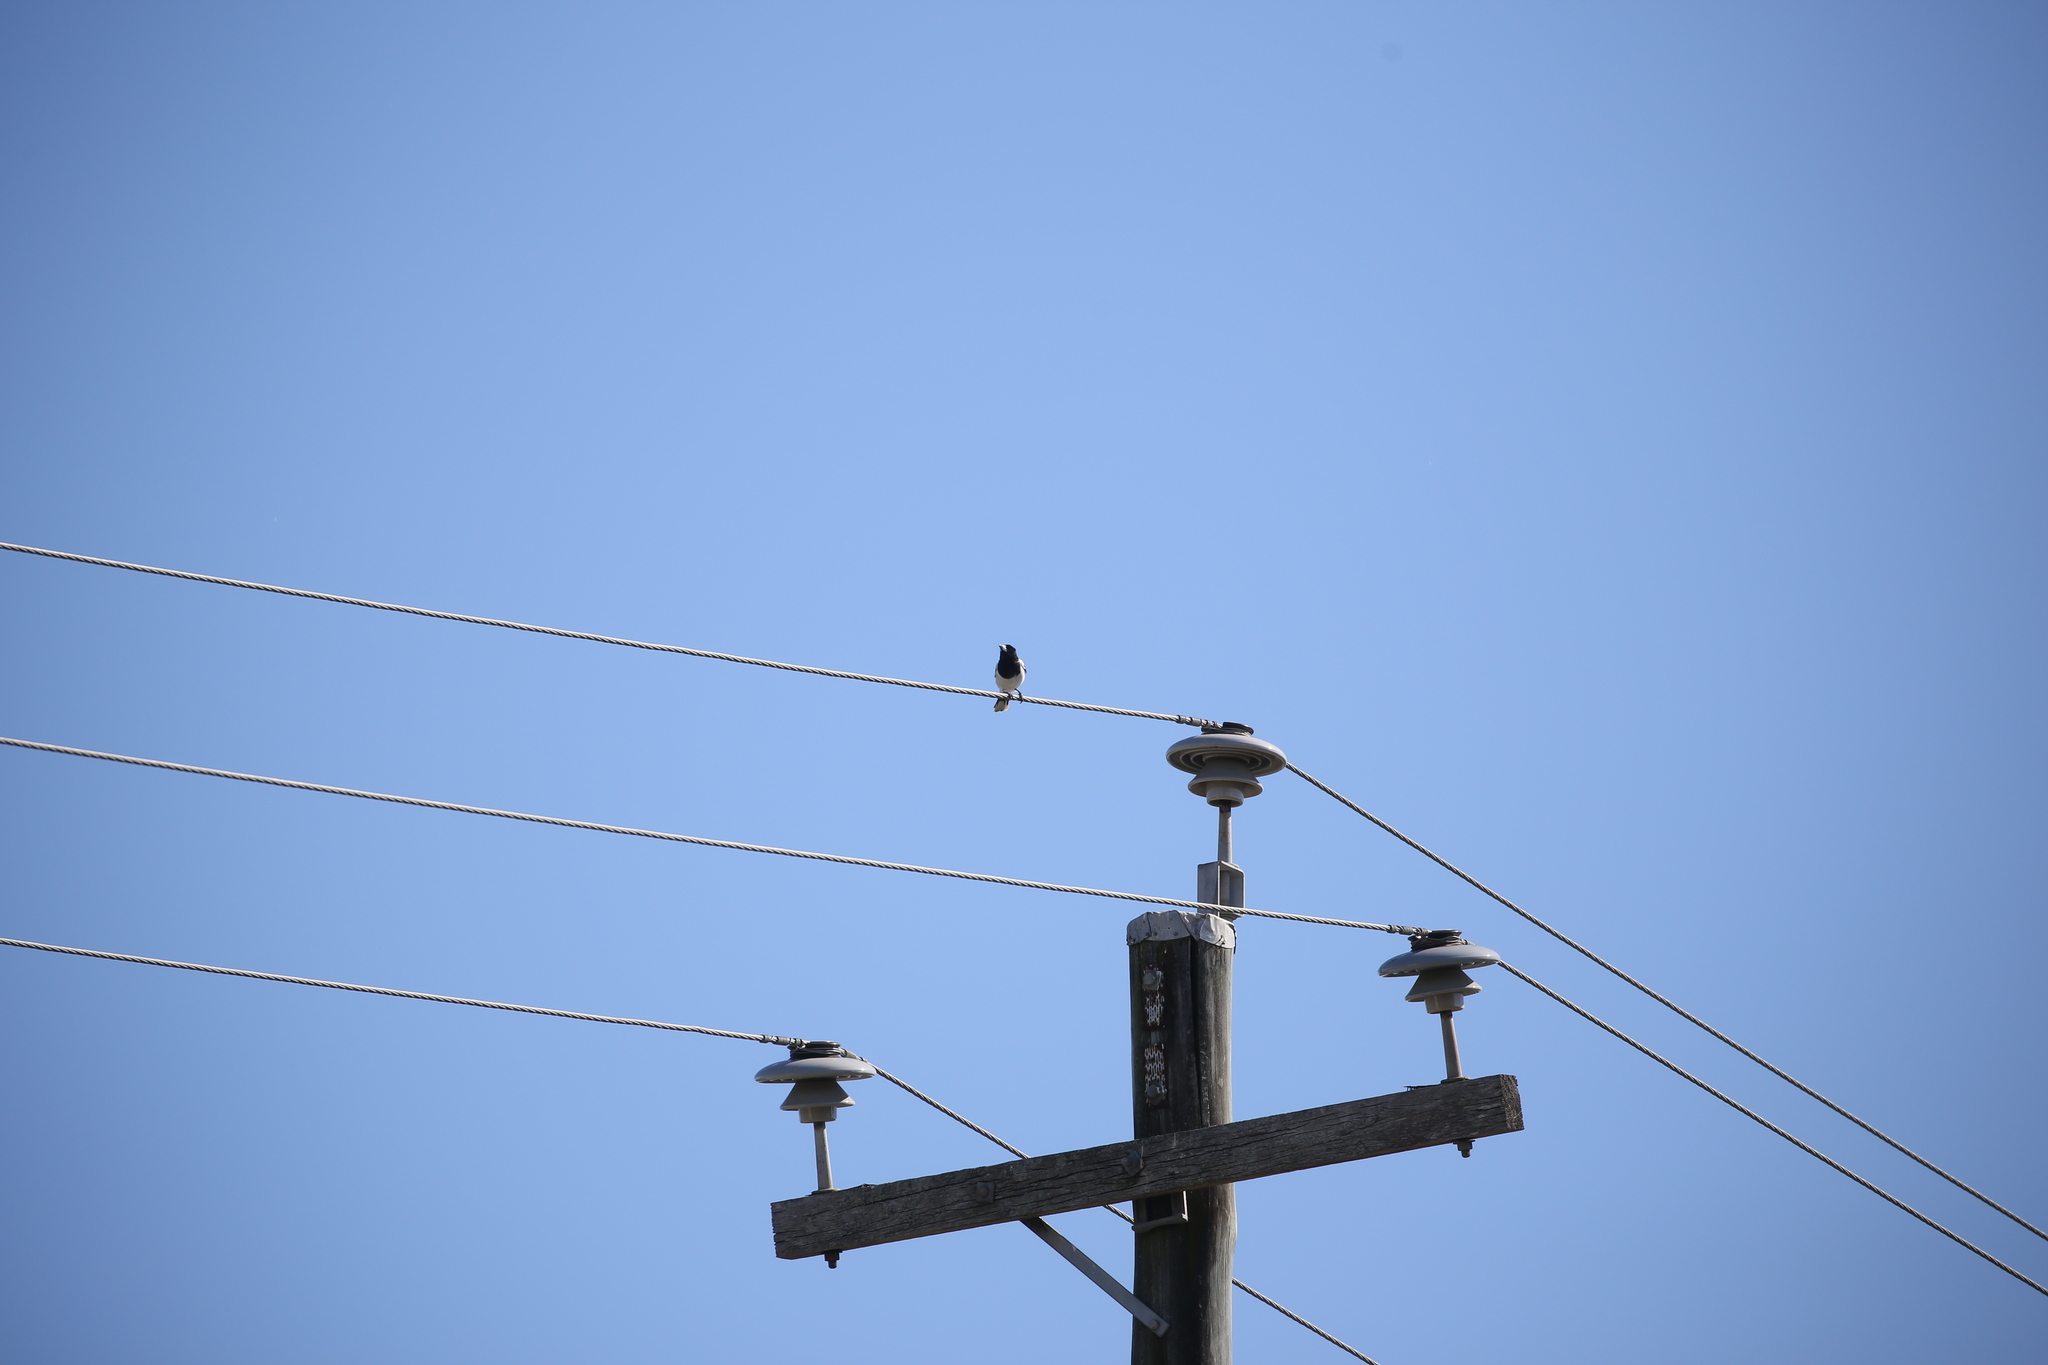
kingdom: Animalia
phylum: Chordata
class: Aves
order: Passeriformes
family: Cracticidae
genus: Cracticus
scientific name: Cracticus nigrogularis
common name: Pied butcherbird
